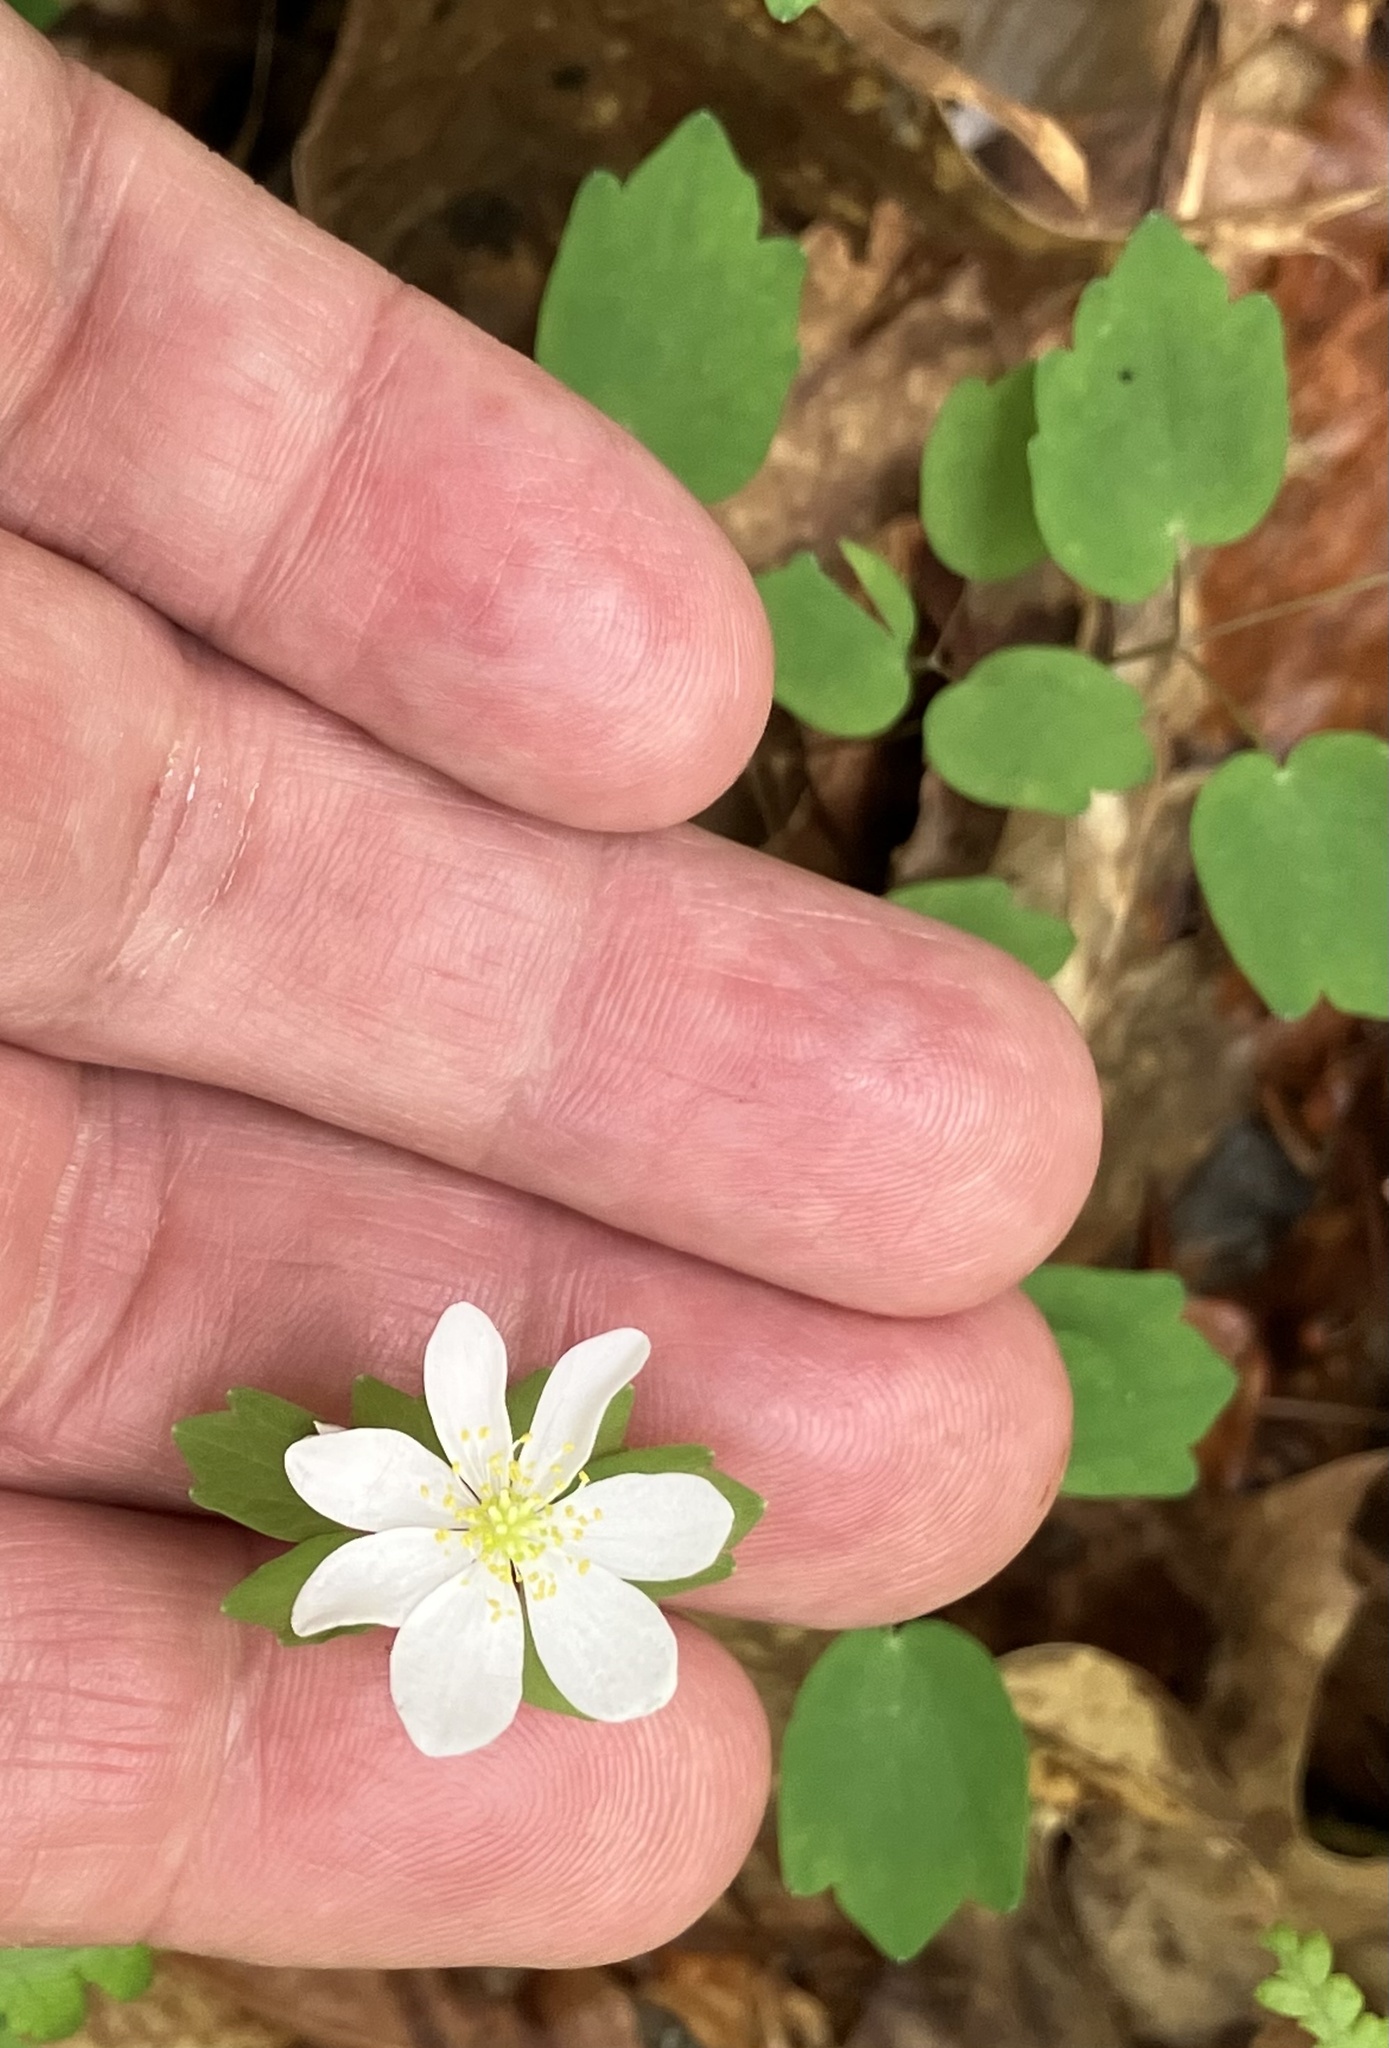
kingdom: Plantae
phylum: Tracheophyta
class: Magnoliopsida
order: Ranunculales
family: Ranunculaceae
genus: Thalictrum
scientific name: Thalictrum thalictroides
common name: Rue-anemone
